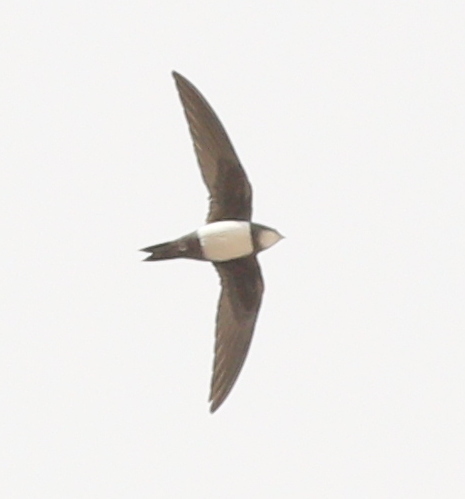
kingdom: Animalia
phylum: Chordata
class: Aves
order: Apodiformes
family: Apodidae
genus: Tachymarptis
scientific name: Tachymarptis melba
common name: Alpine swift
